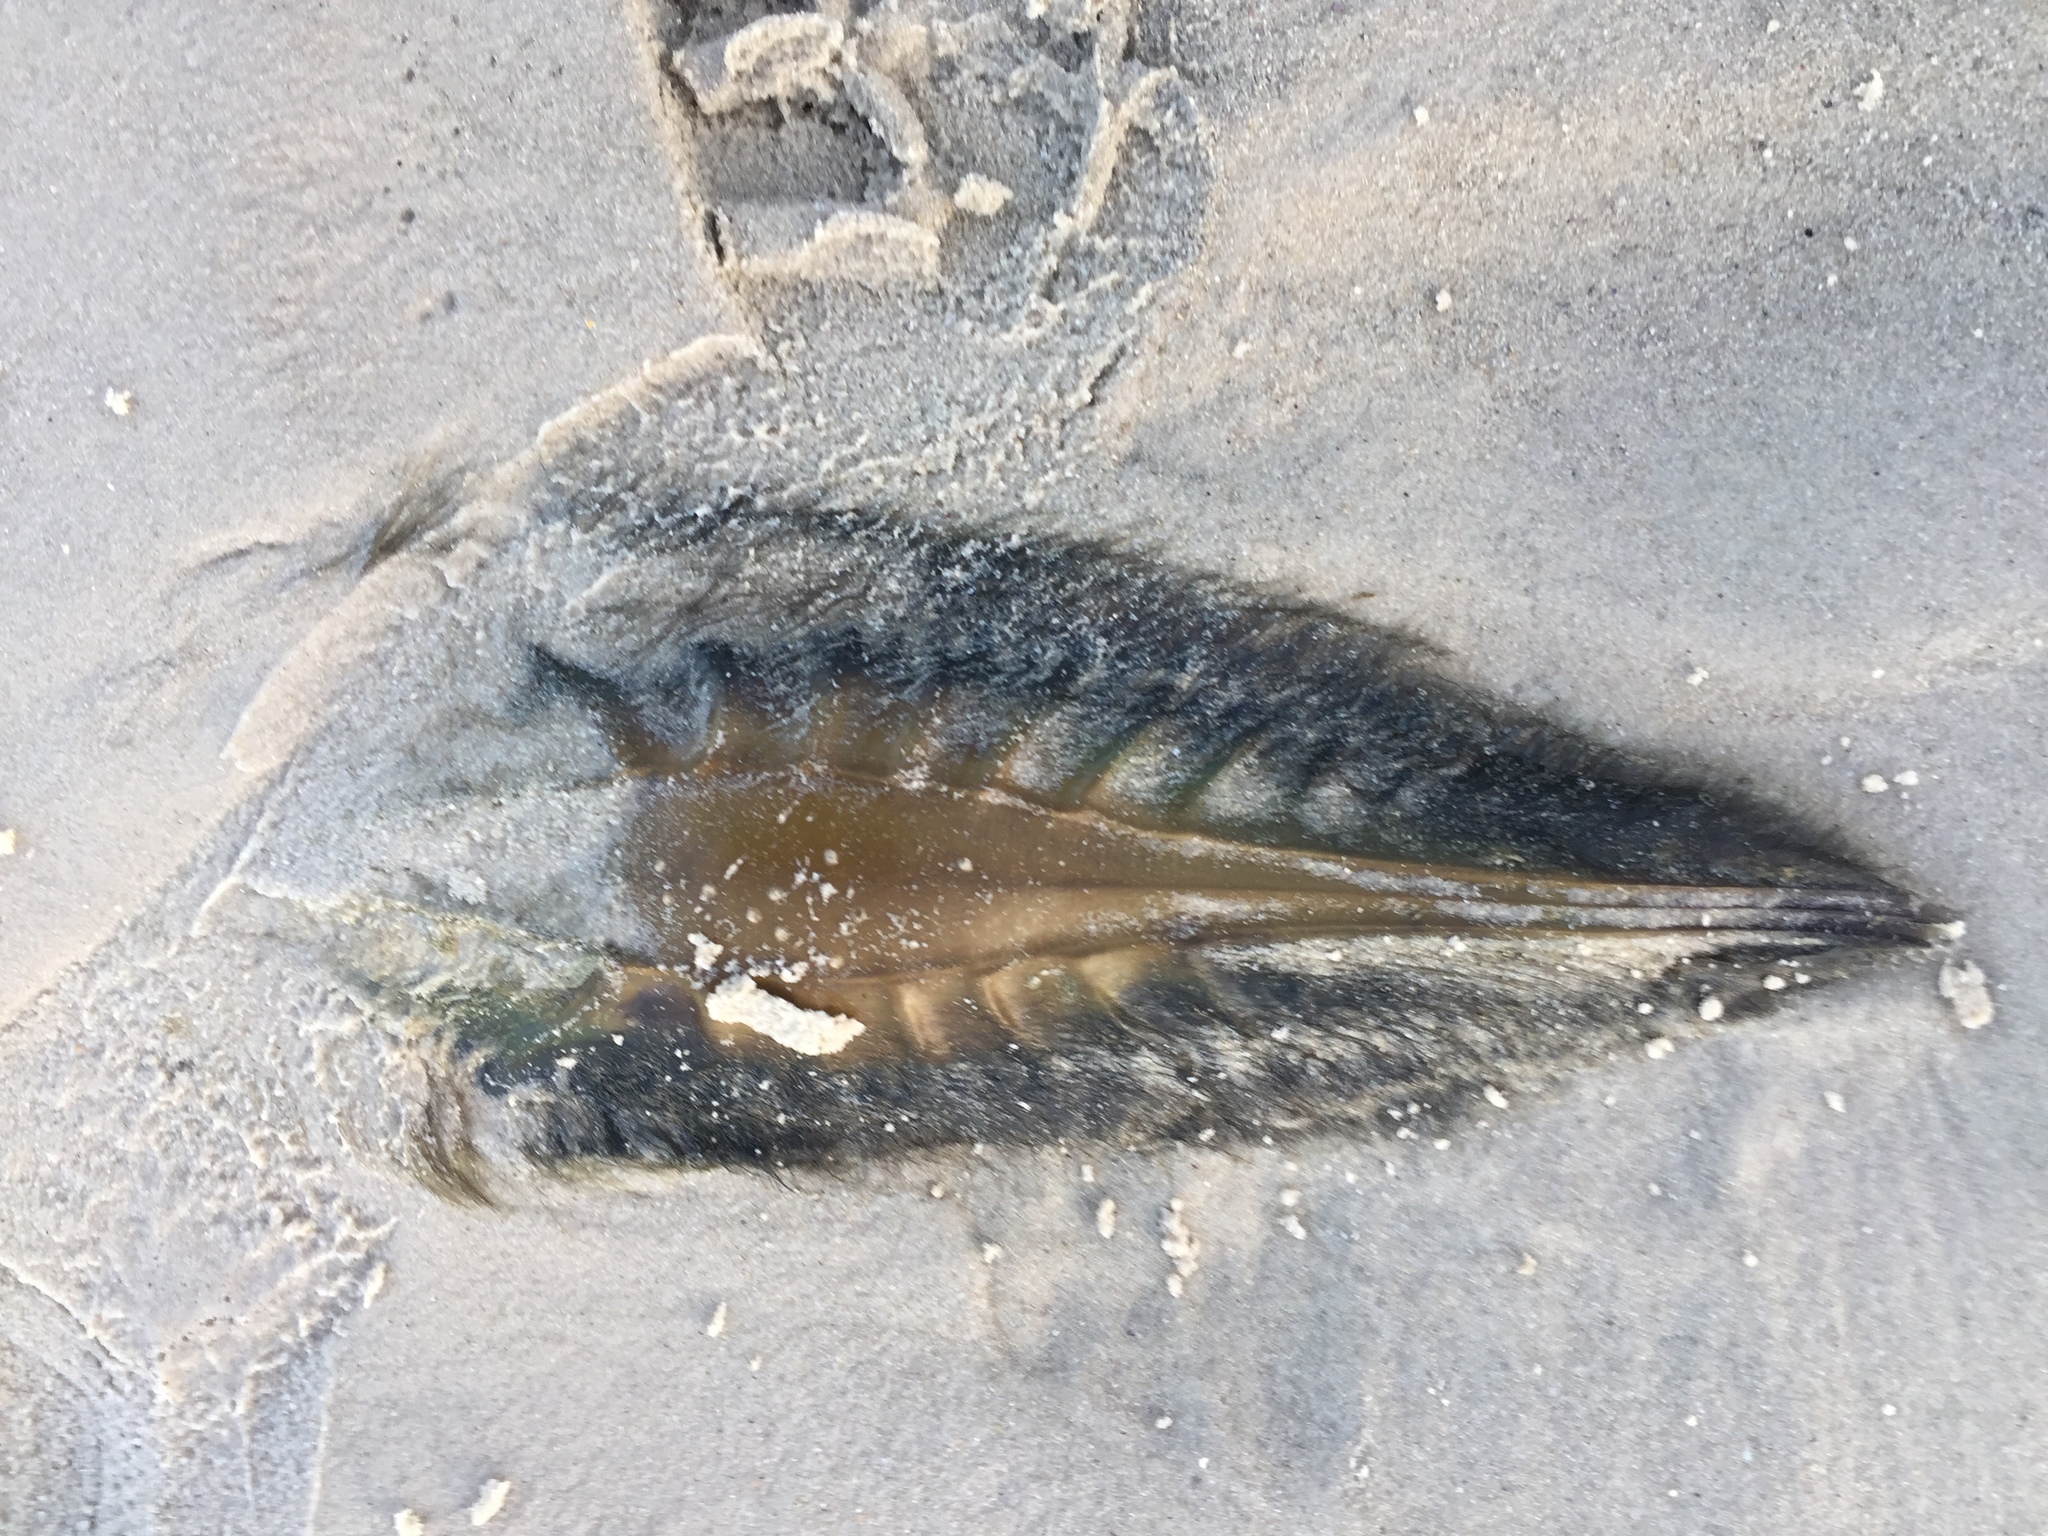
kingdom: Animalia
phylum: Chordata
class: Holocephali
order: Chimaeriformes
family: Callorhinchidae
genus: Callorhinchus
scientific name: Callorhinchus capensis
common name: Cape elephantfish
